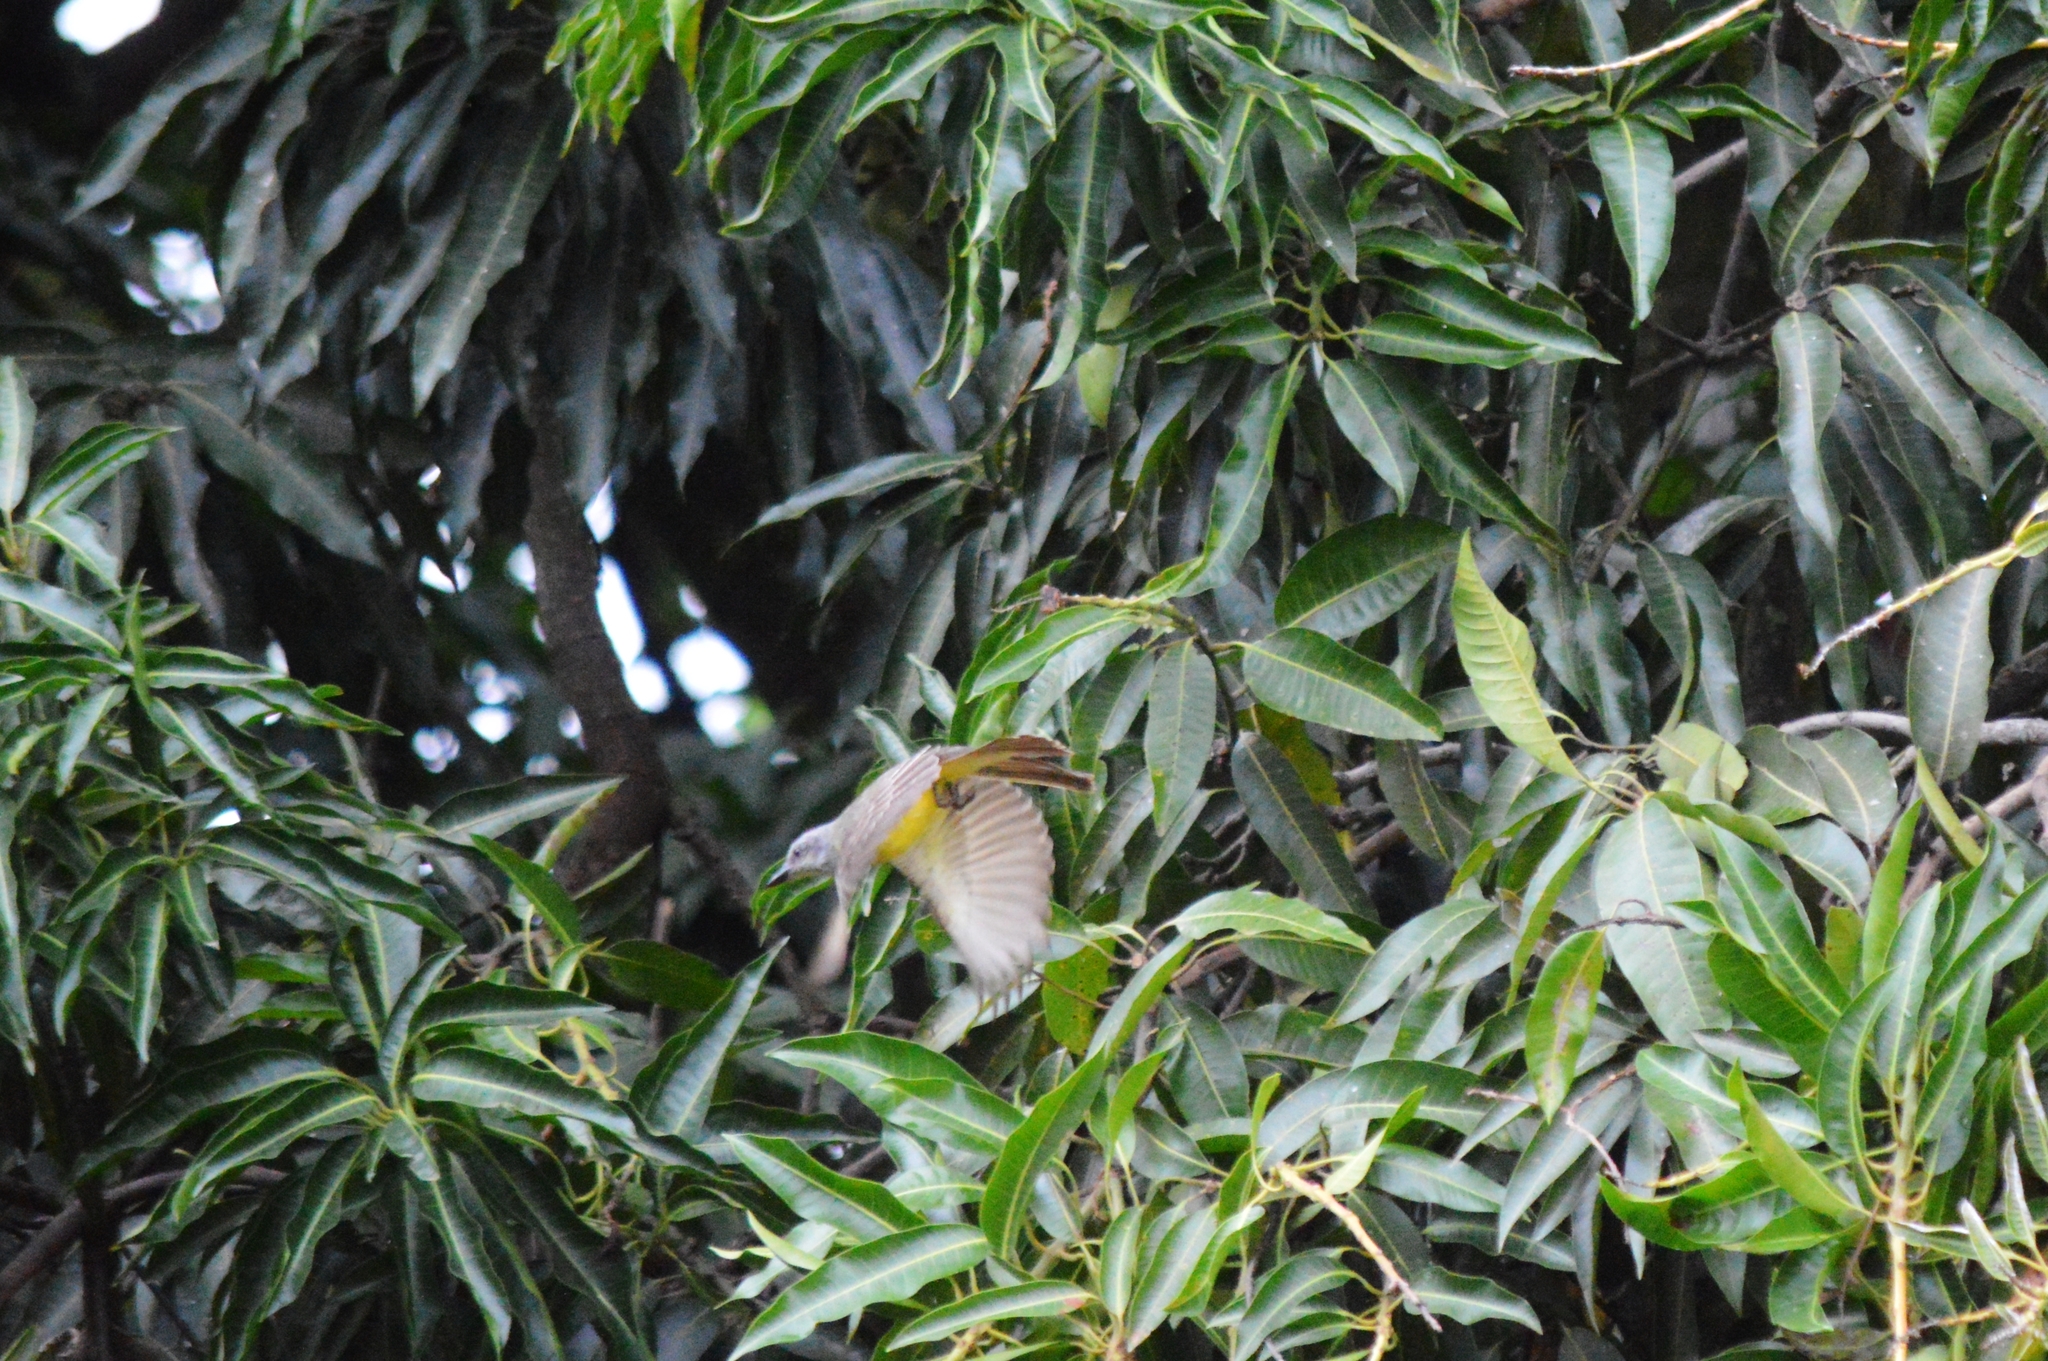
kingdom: Animalia
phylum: Chordata
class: Aves
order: Passeriformes
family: Tyrannidae
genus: Tyrannus
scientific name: Tyrannus melancholicus
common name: Tropical kingbird
